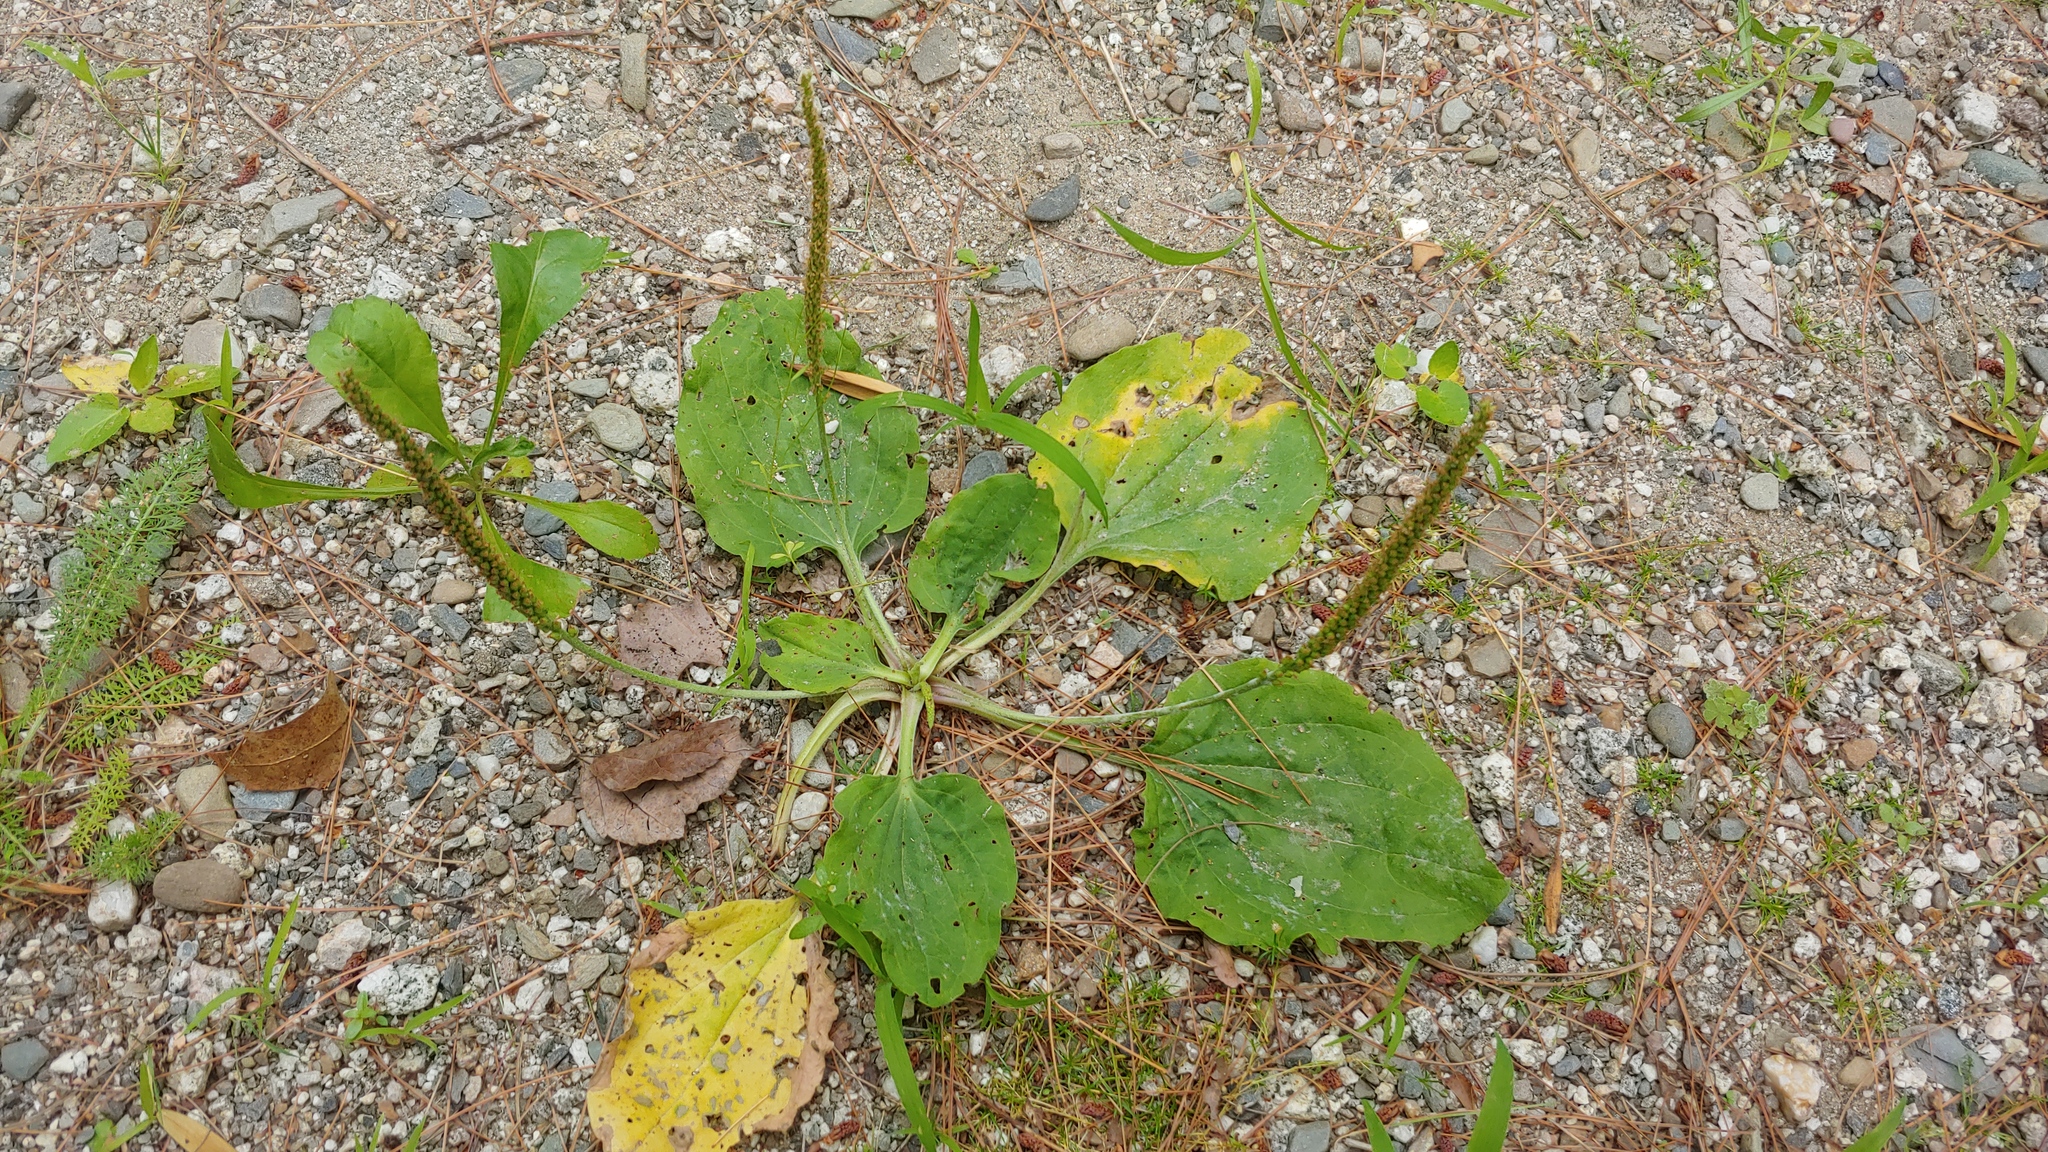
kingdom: Plantae
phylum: Tracheophyta
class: Magnoliopsida
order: Lamiales
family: Plantaginaceae
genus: Plantago
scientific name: Plantago major
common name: Common plantain
